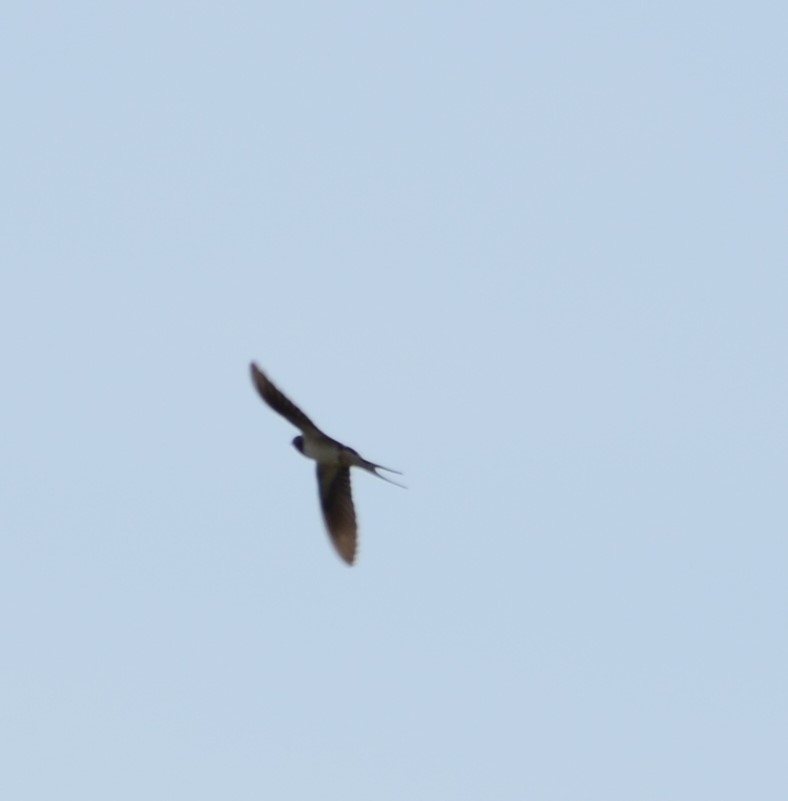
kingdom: Animalia
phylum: Chordata
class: Aves
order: Passeriformes
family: Hirundinidae
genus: Hirundo
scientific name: Hirundo rustica
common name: Barn swallow
